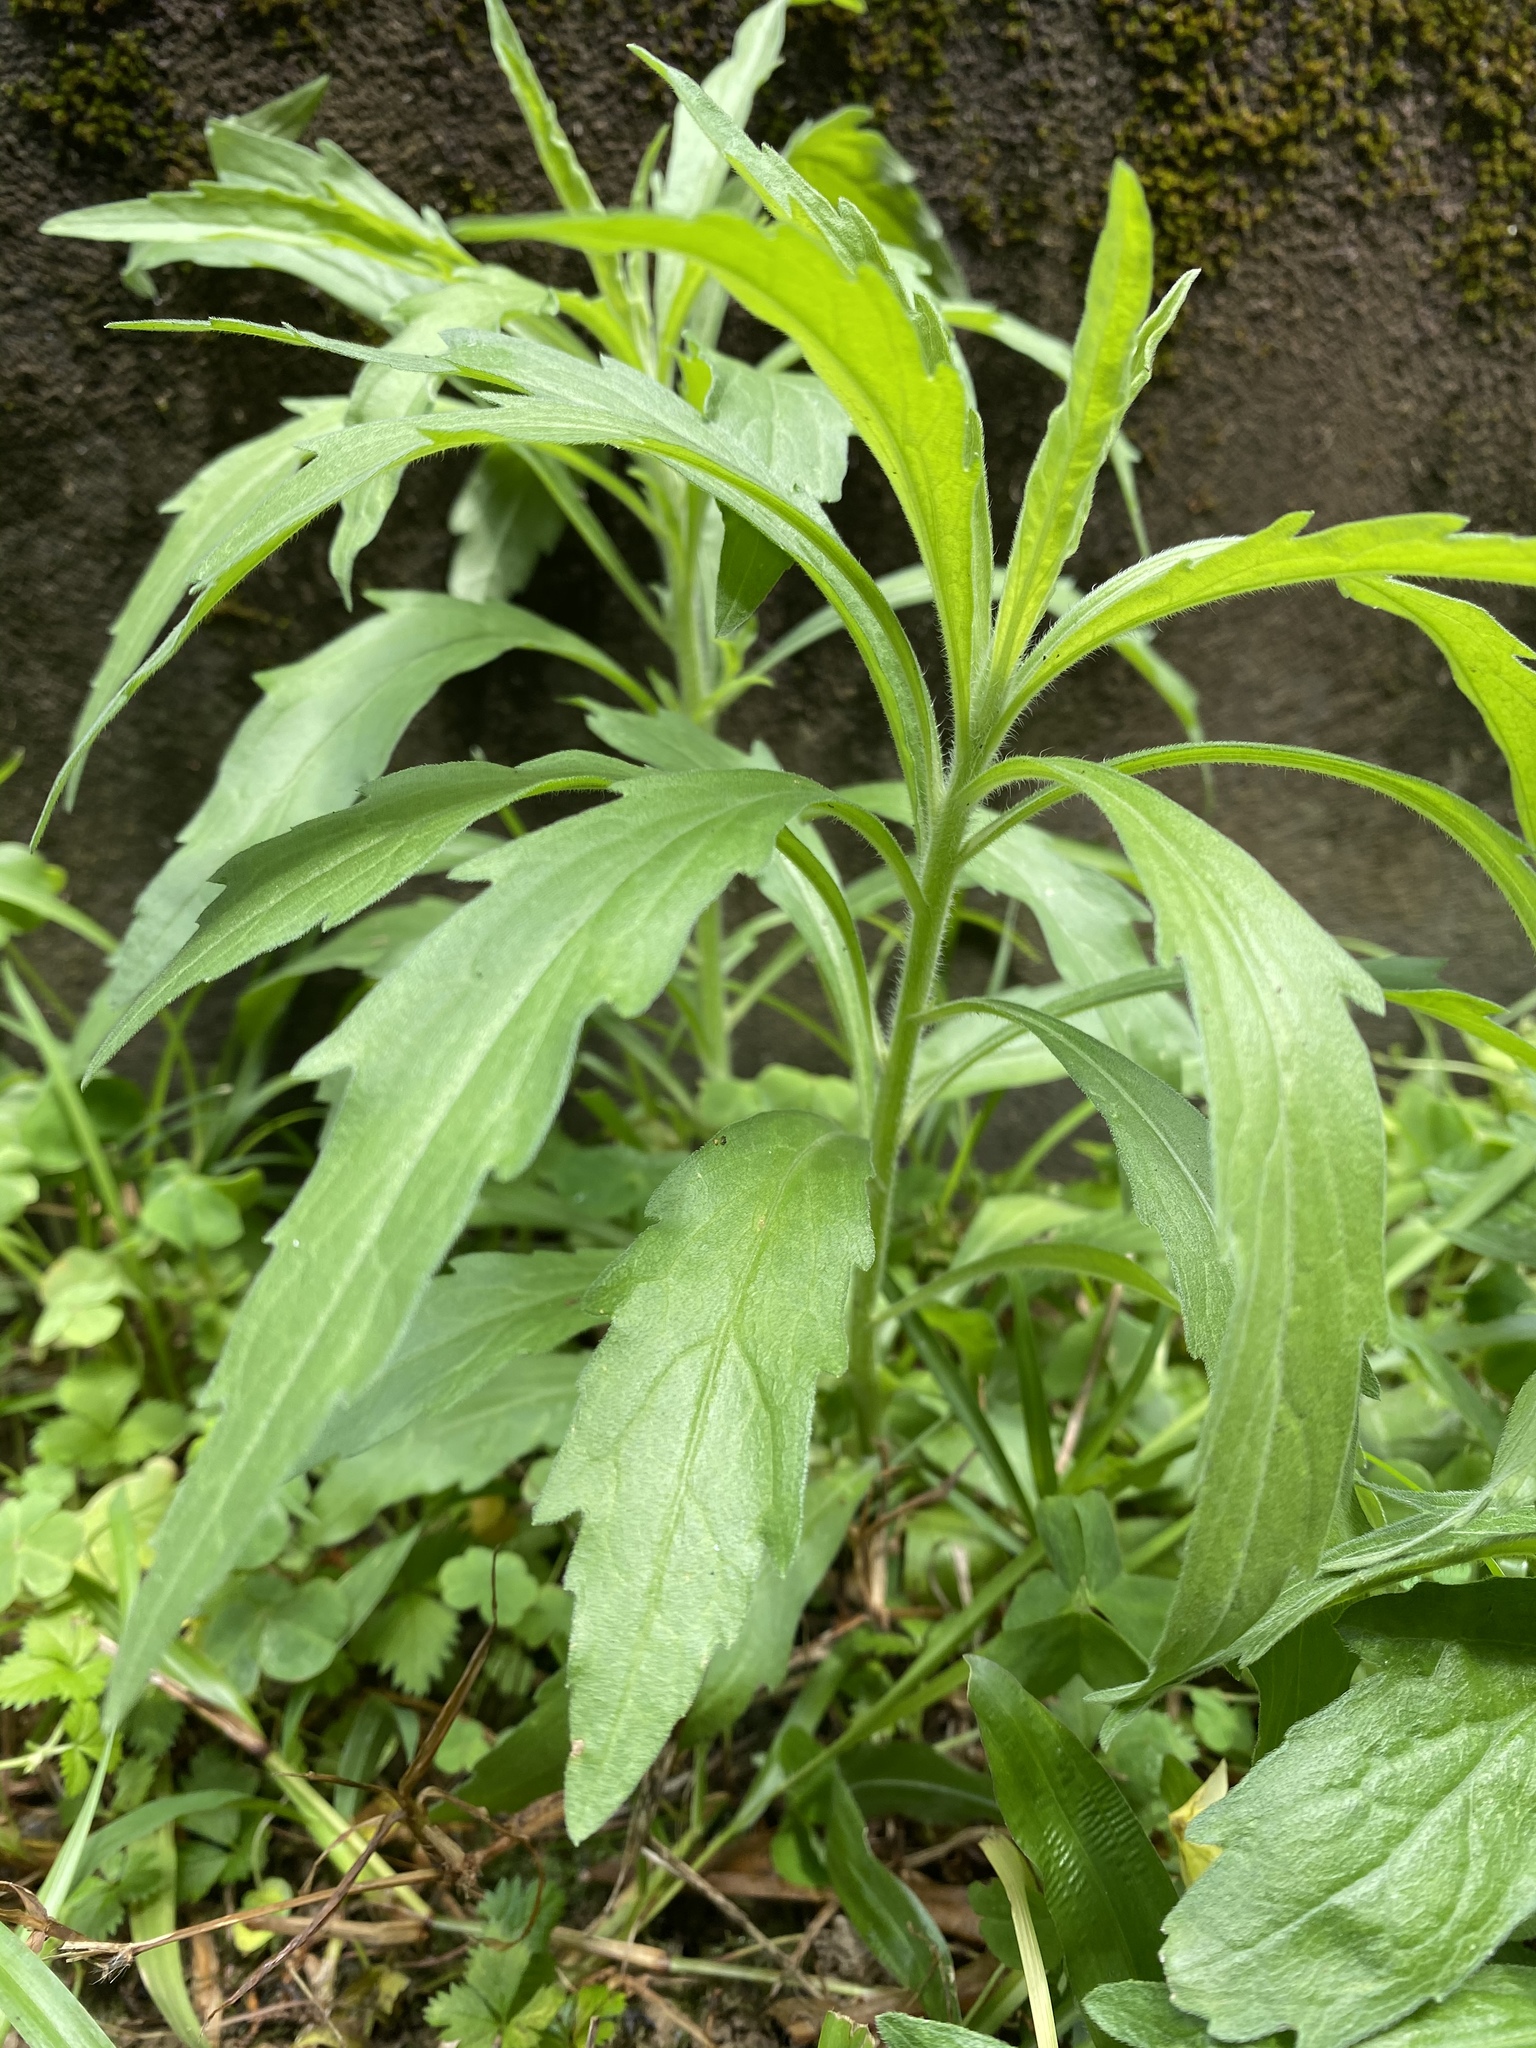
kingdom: Plantae
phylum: Tracheophyta
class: Magnoliopsida
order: Asterales
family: Asteraceae
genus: Erigeron
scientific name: Erigeron sumatrensis
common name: Daisy
